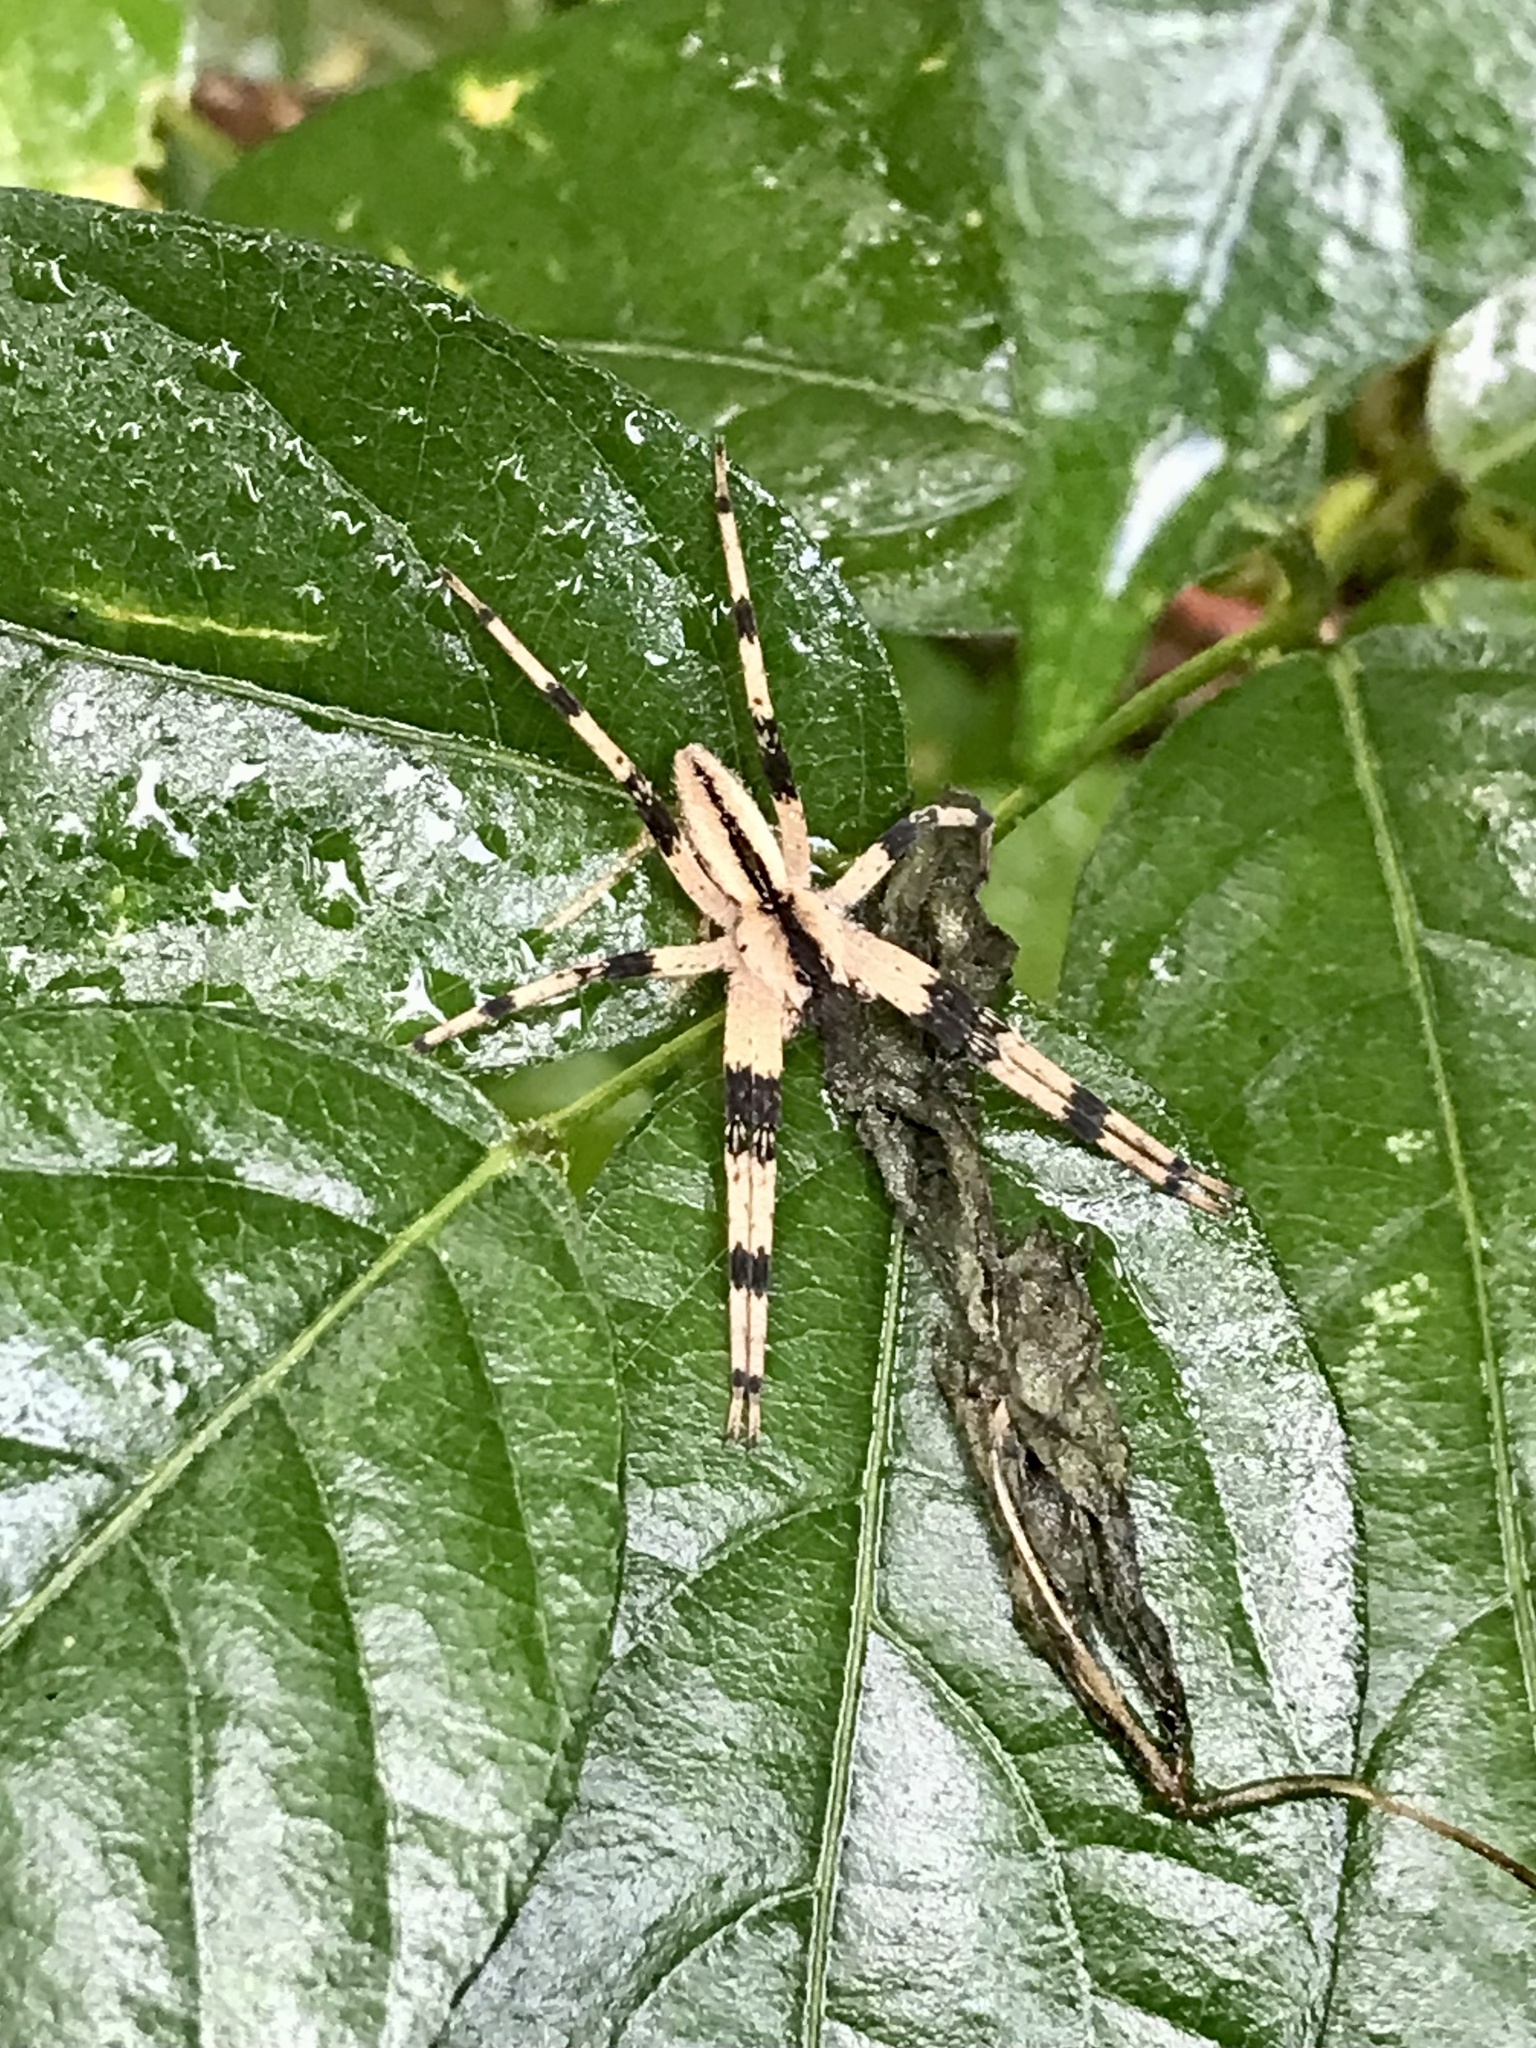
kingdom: Animalia
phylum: Arthropoda
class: Arachnida
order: Araneae
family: Pisauridae
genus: Pisaurina
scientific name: Pisaurina mira
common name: American nursery web spider
